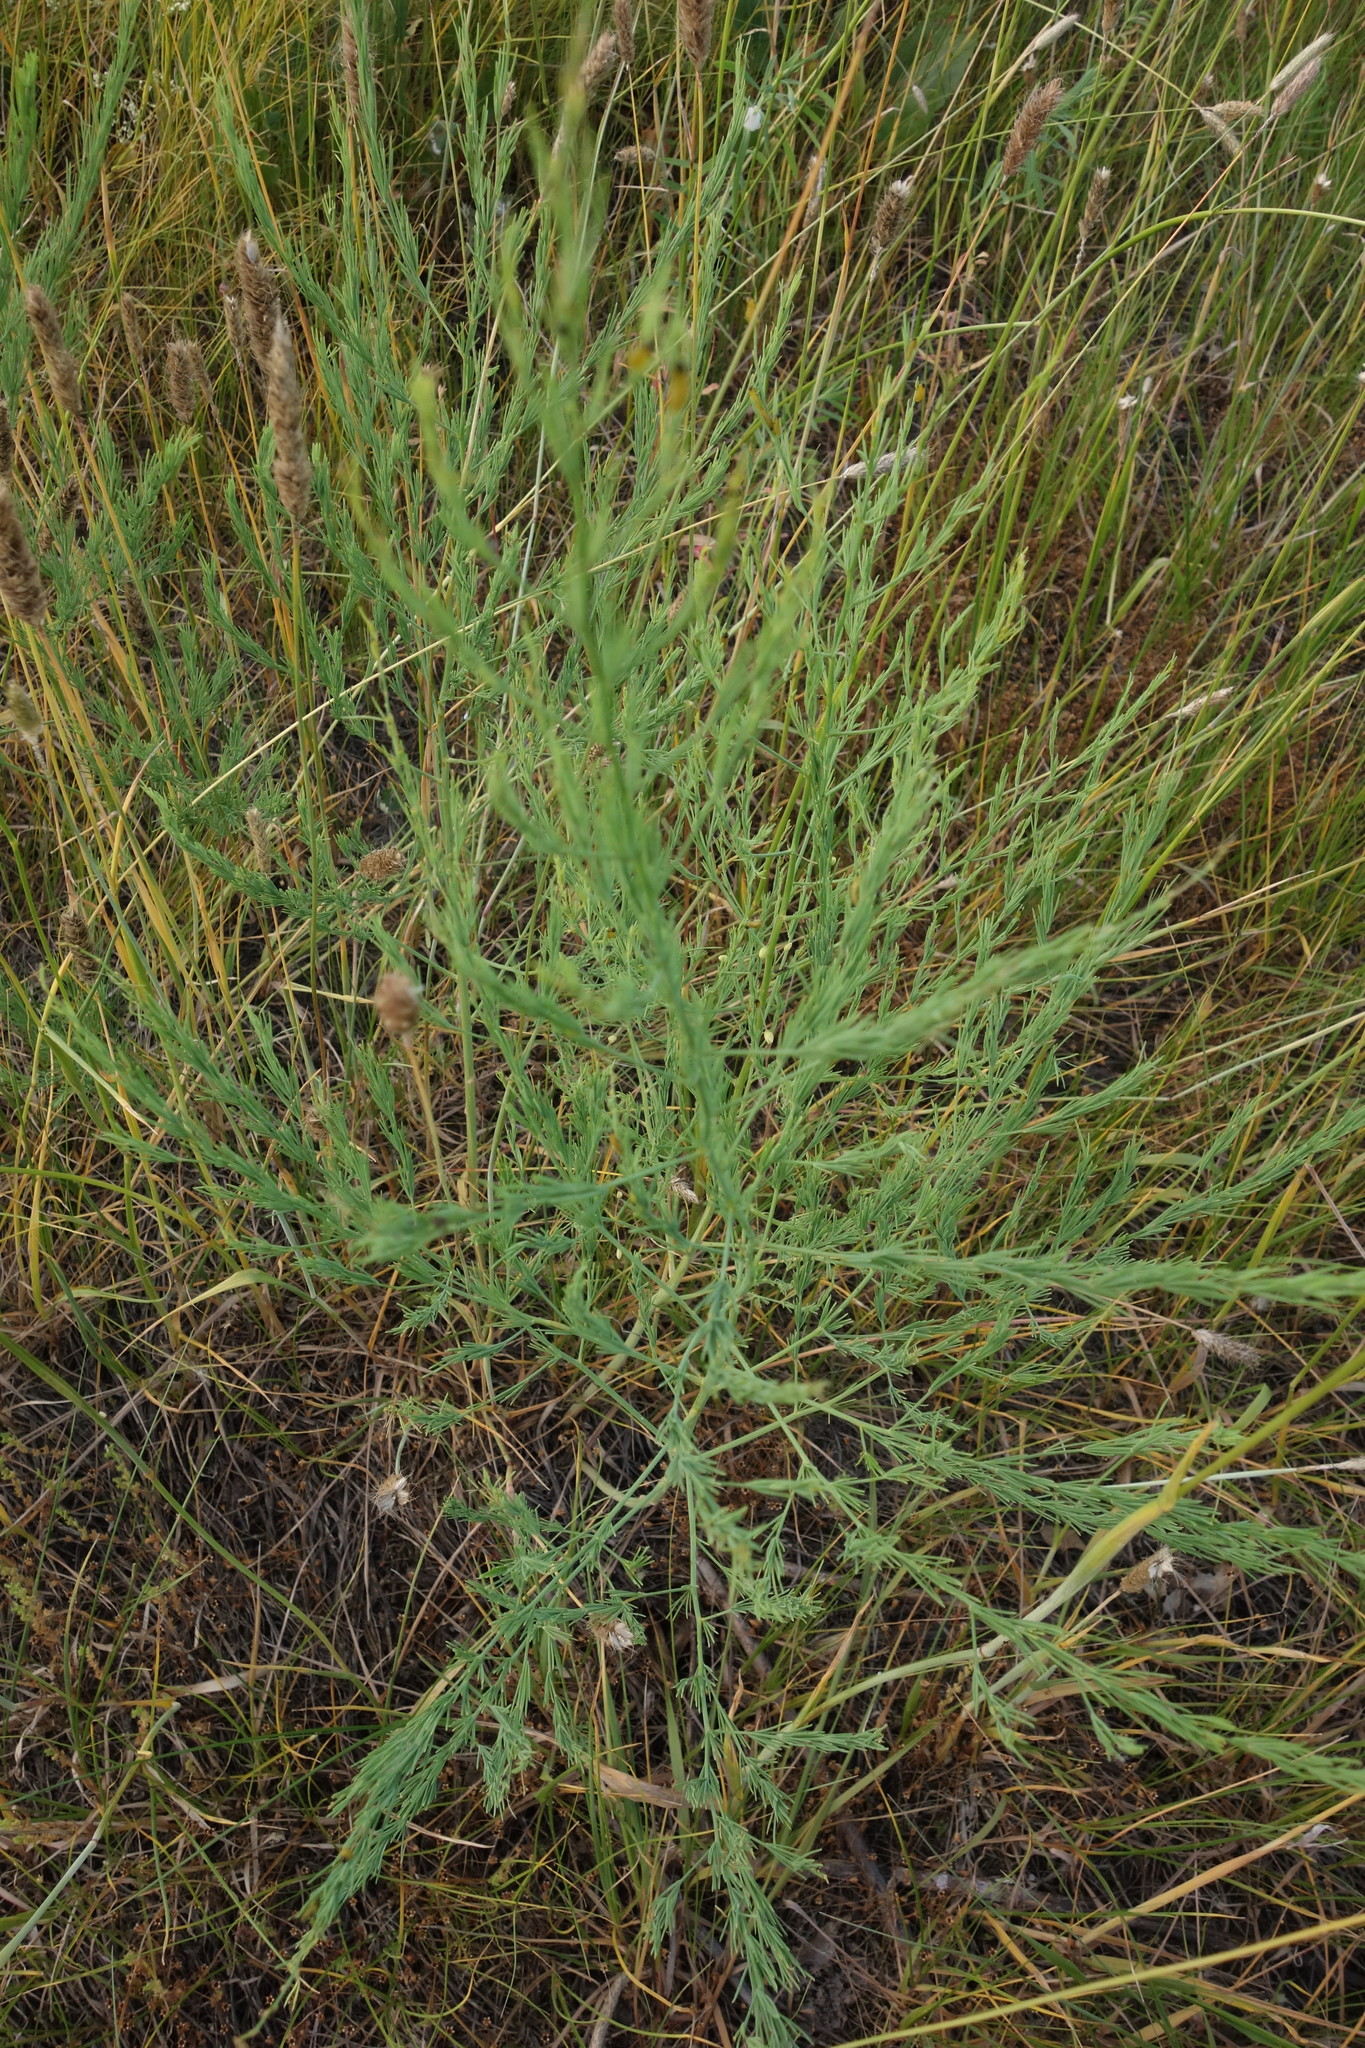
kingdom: Plantae
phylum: Tracheophyta
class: Liliopsida
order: Asparagales
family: Asparagaceae
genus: Asparagus
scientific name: Asparagus officinalis
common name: Garden asparagus
